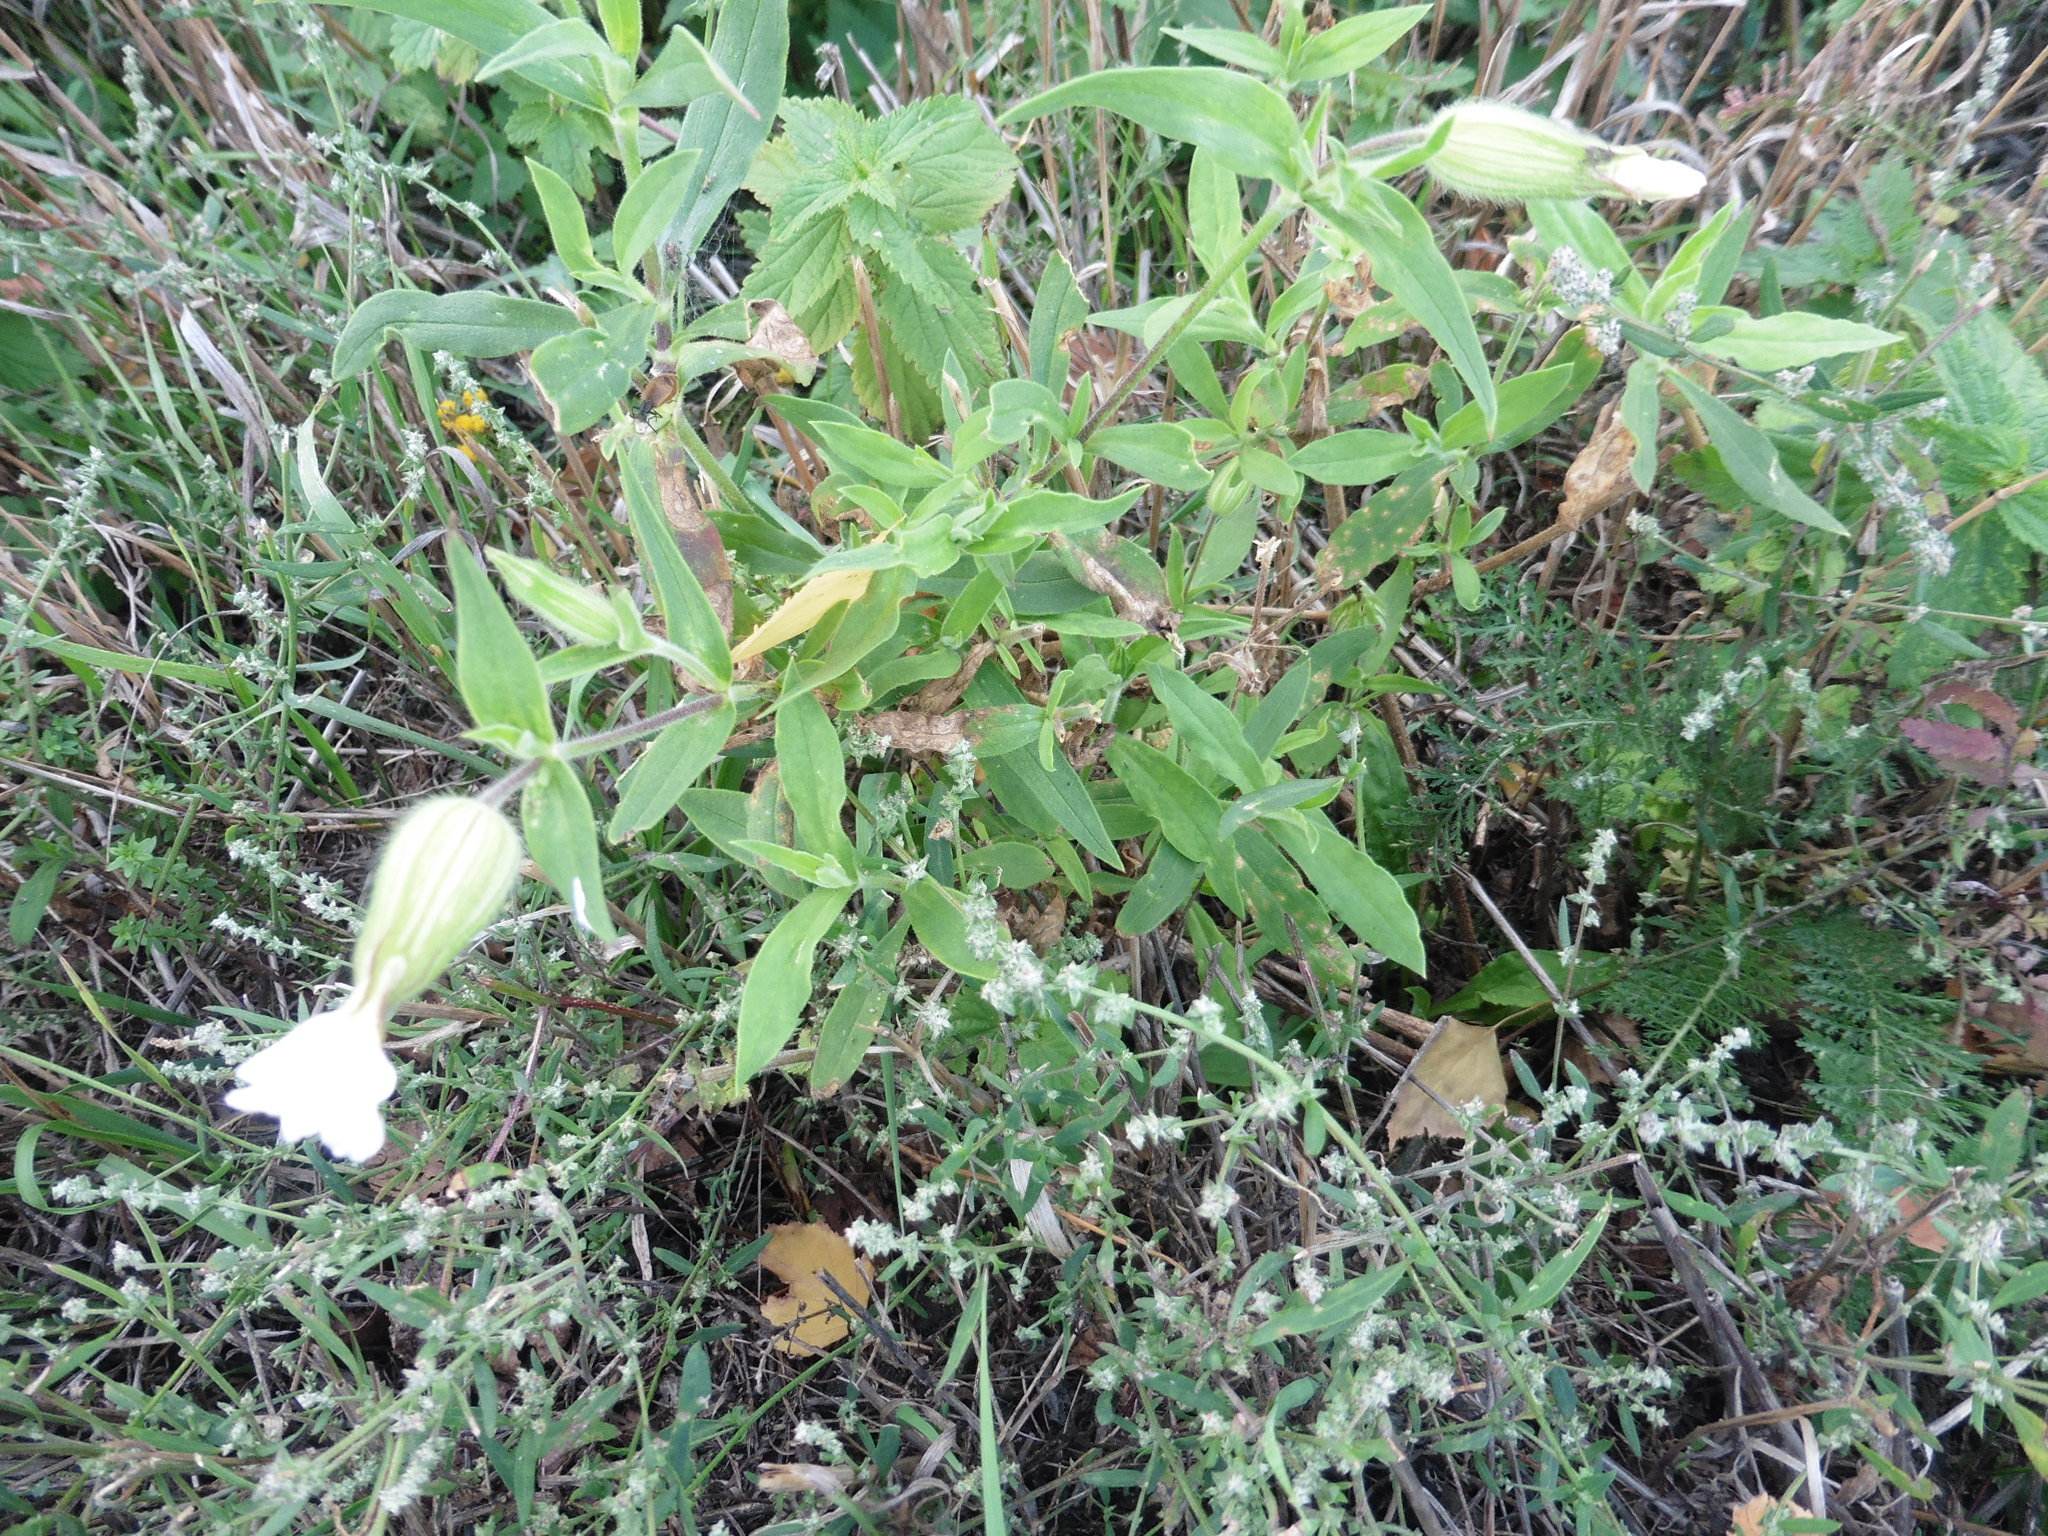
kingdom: Plantae
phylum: Tracheophyta
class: Magnoliopsida
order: Caryophyllales
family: Caryophyllaceae
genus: Silene
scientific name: Silene latifolia
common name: White campion
